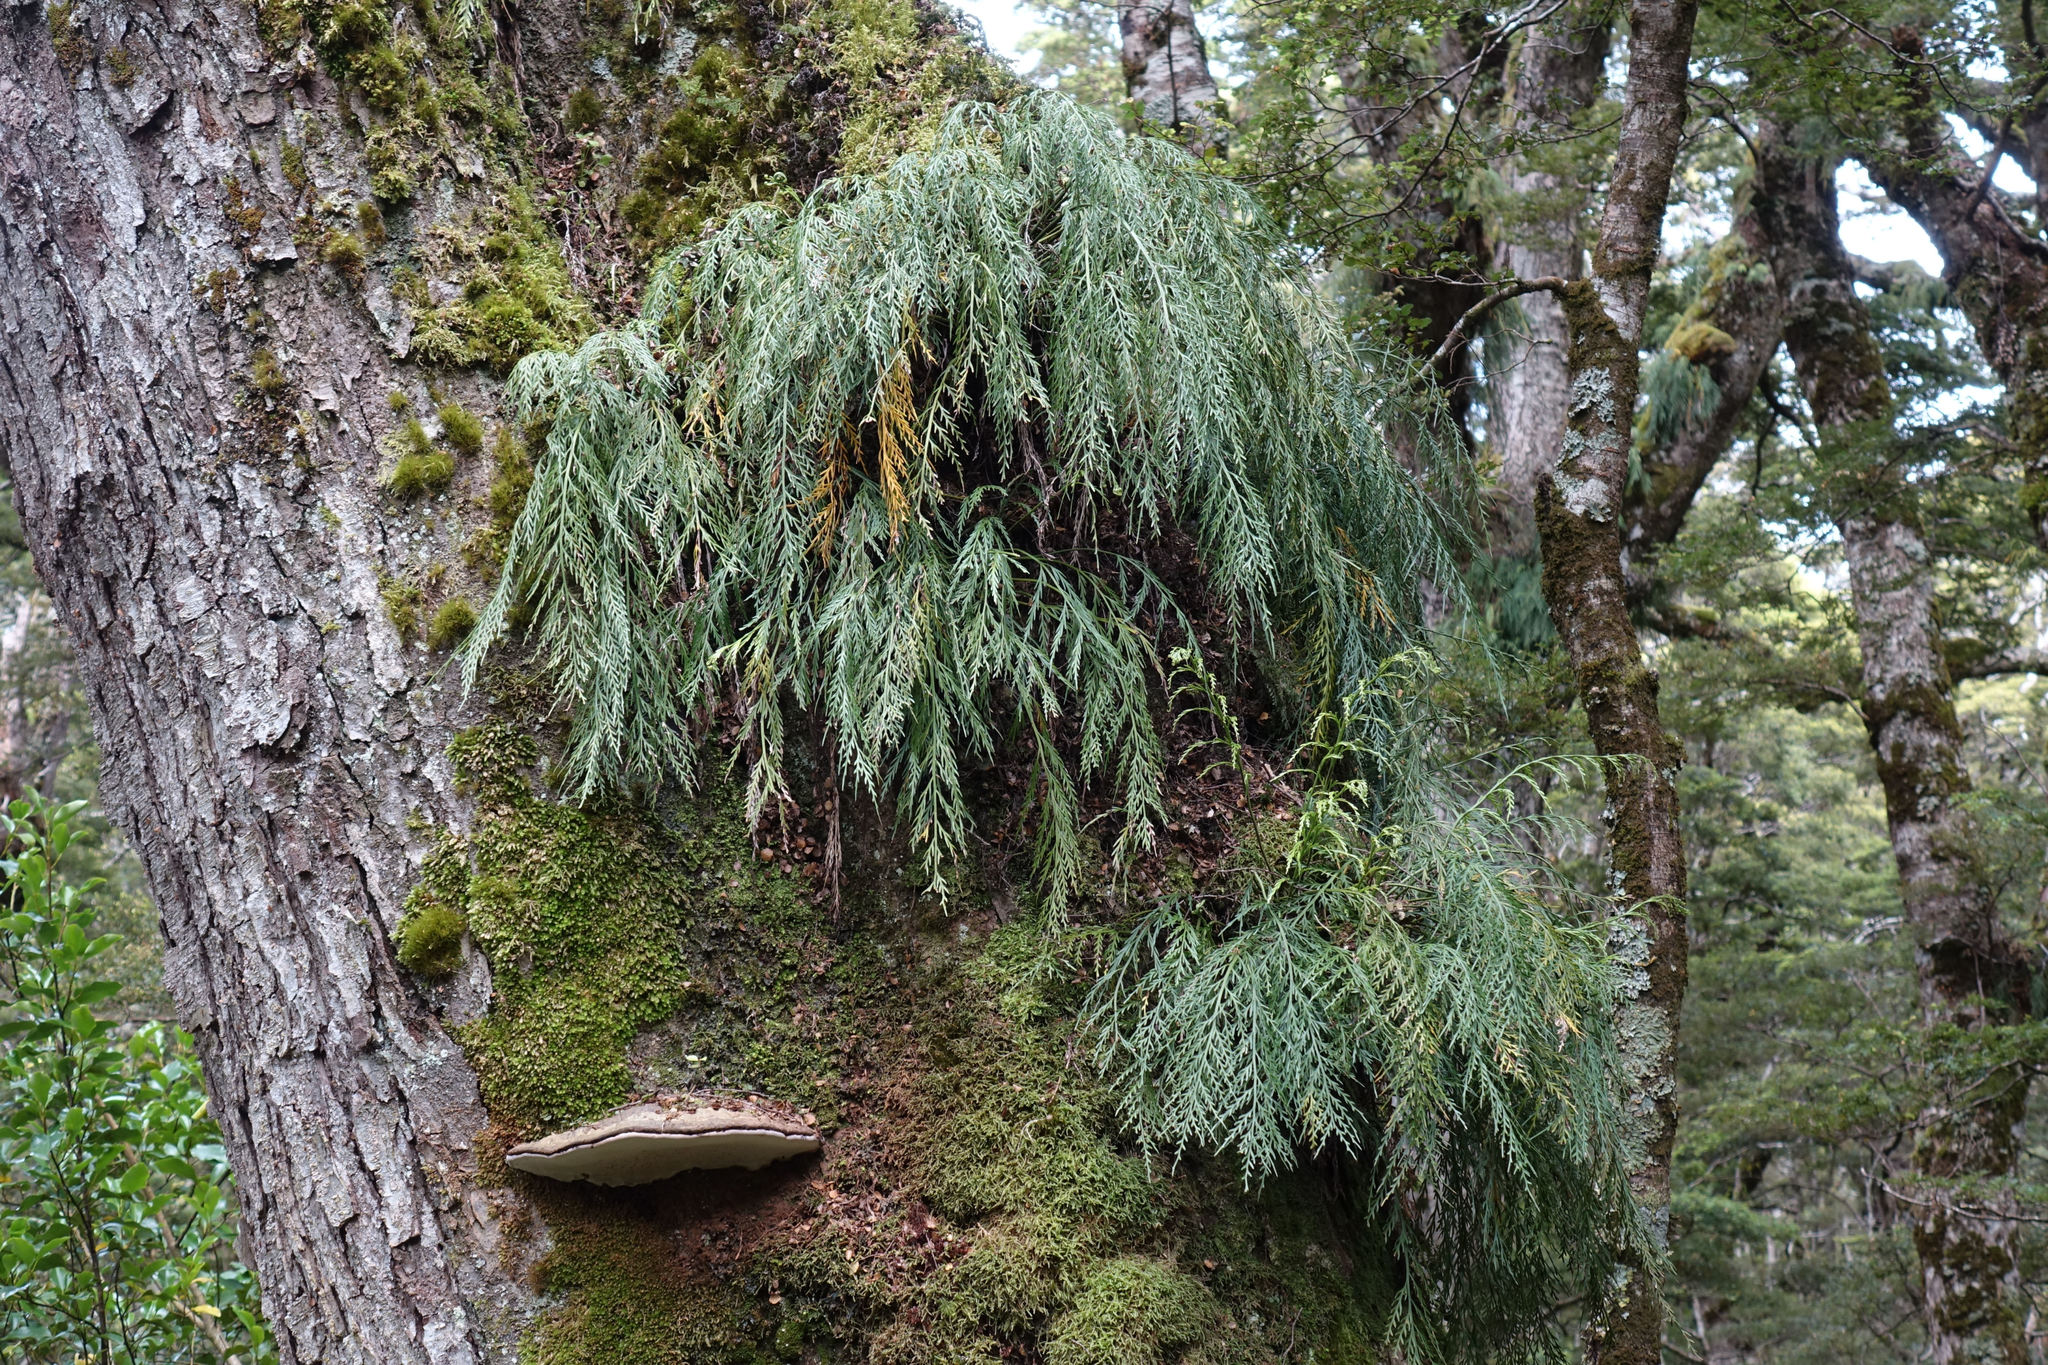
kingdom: Plantae
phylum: Tracheophyta
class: Polypodiopsida
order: Polypodiales
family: Aspleniaceae
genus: Asplenium
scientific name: Asplenium flaccidum
